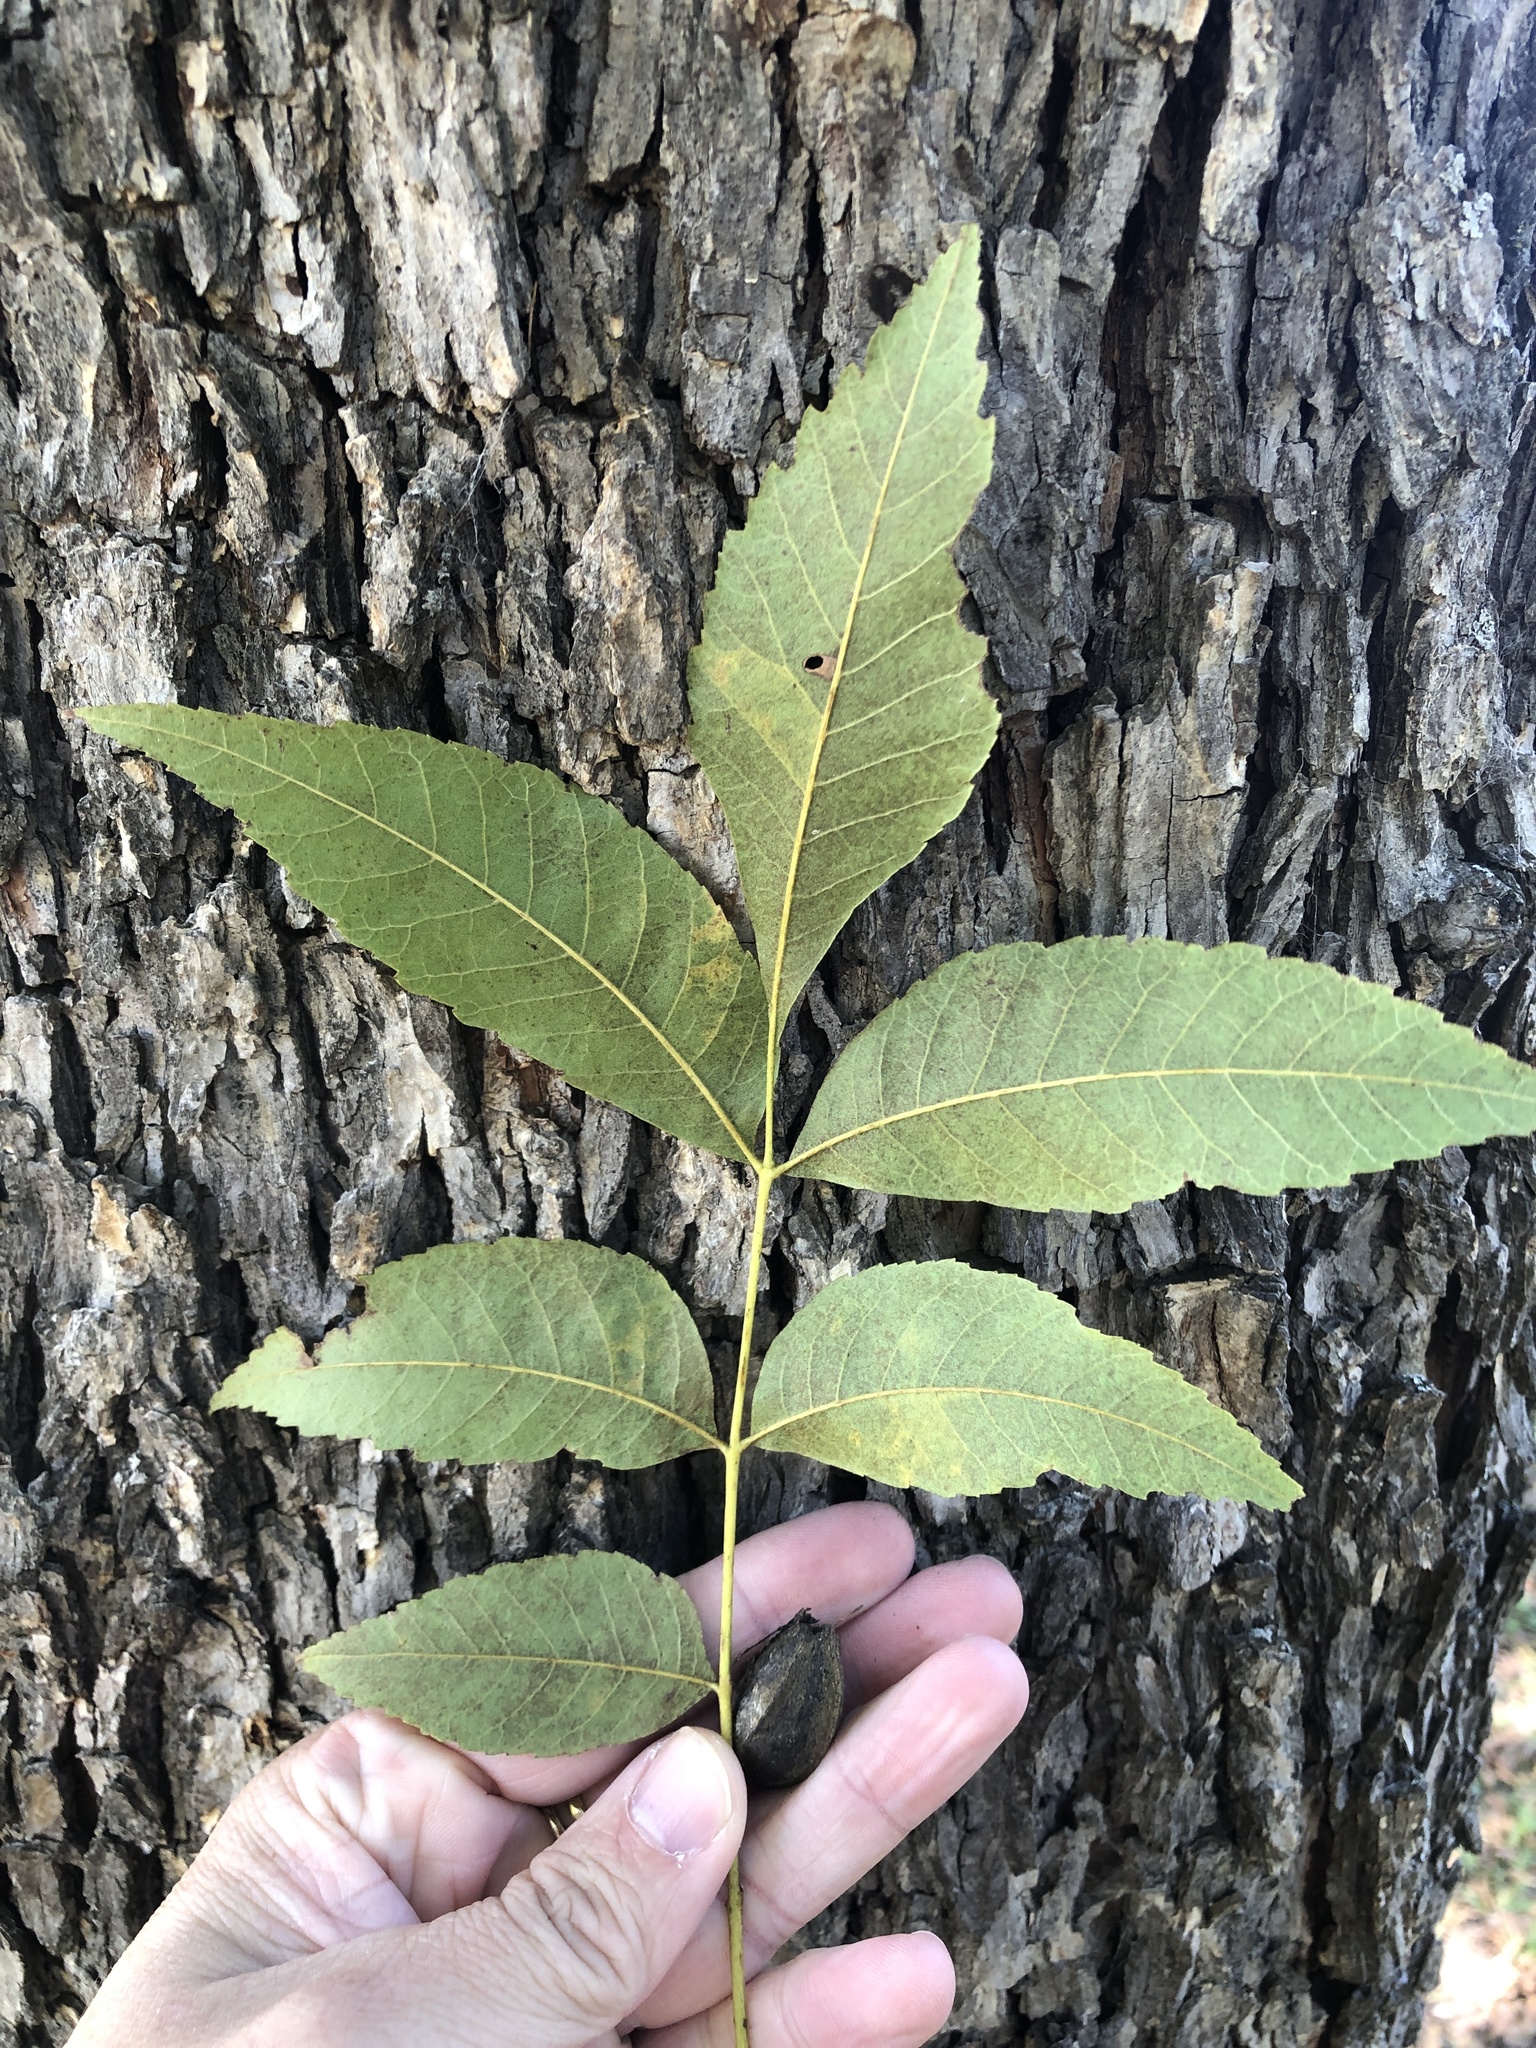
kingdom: Plantae
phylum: Tracheophyta
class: Magnoliopsida
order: Fagales
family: Juglandaceae
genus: Carya
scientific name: Carya illinoinensis
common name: Pecan
